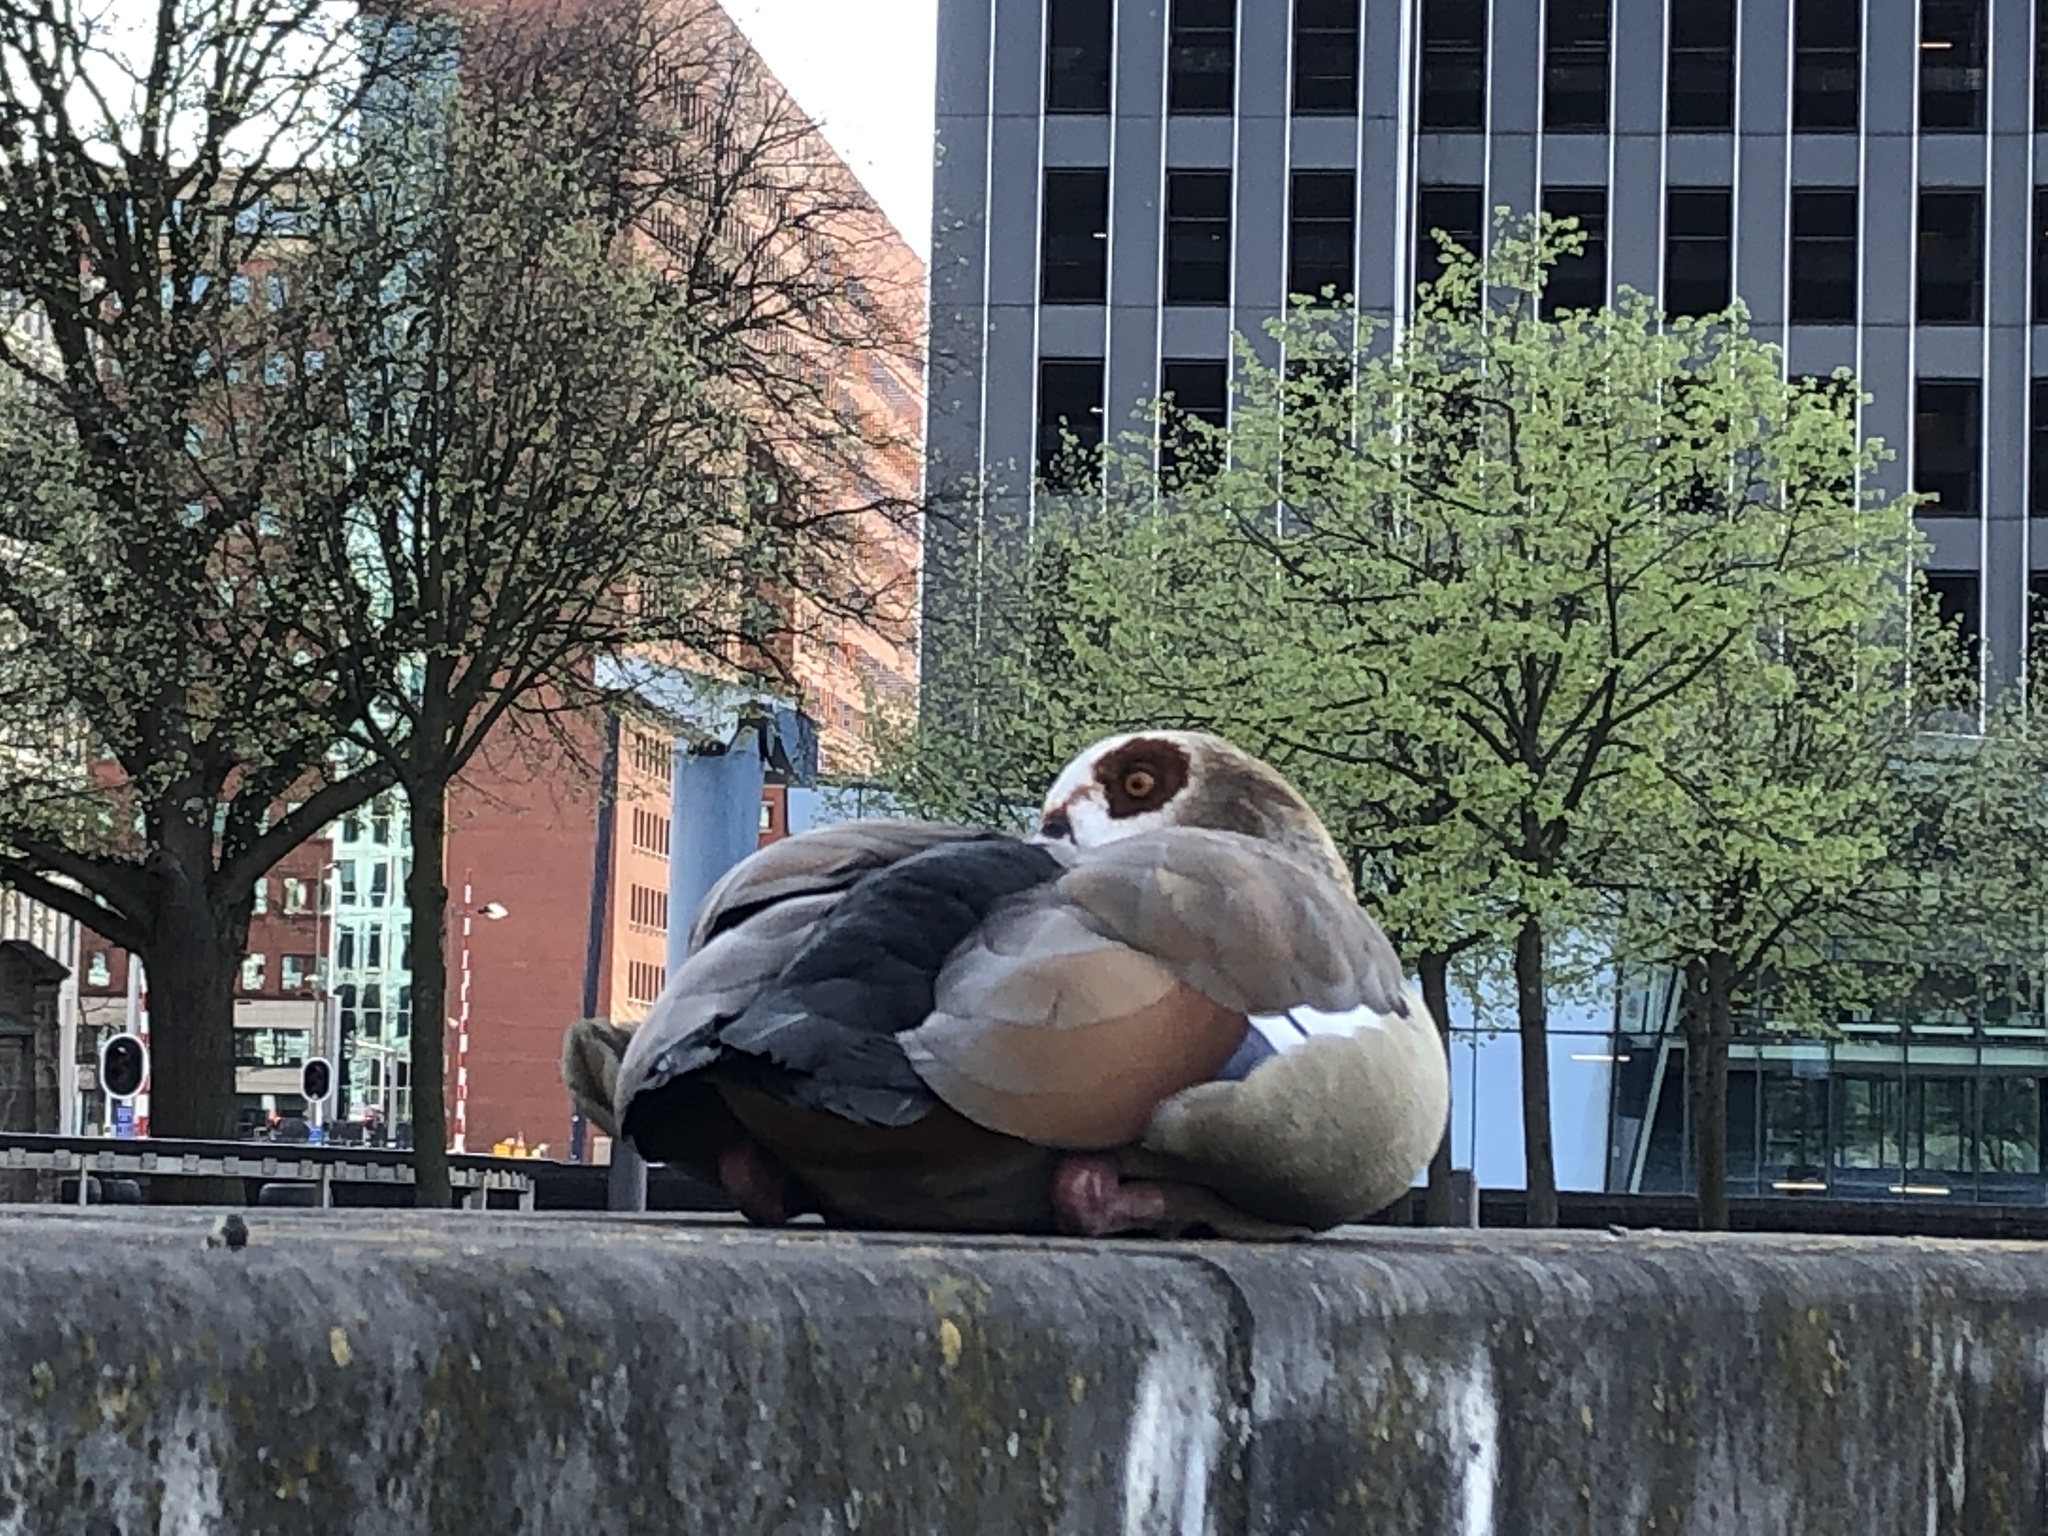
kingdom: Animalia
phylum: Chordata
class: Aves
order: Anseriformes
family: Anatidae
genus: Alopochen
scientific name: Alopochen aegyptiaca
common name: Egyptian goose
